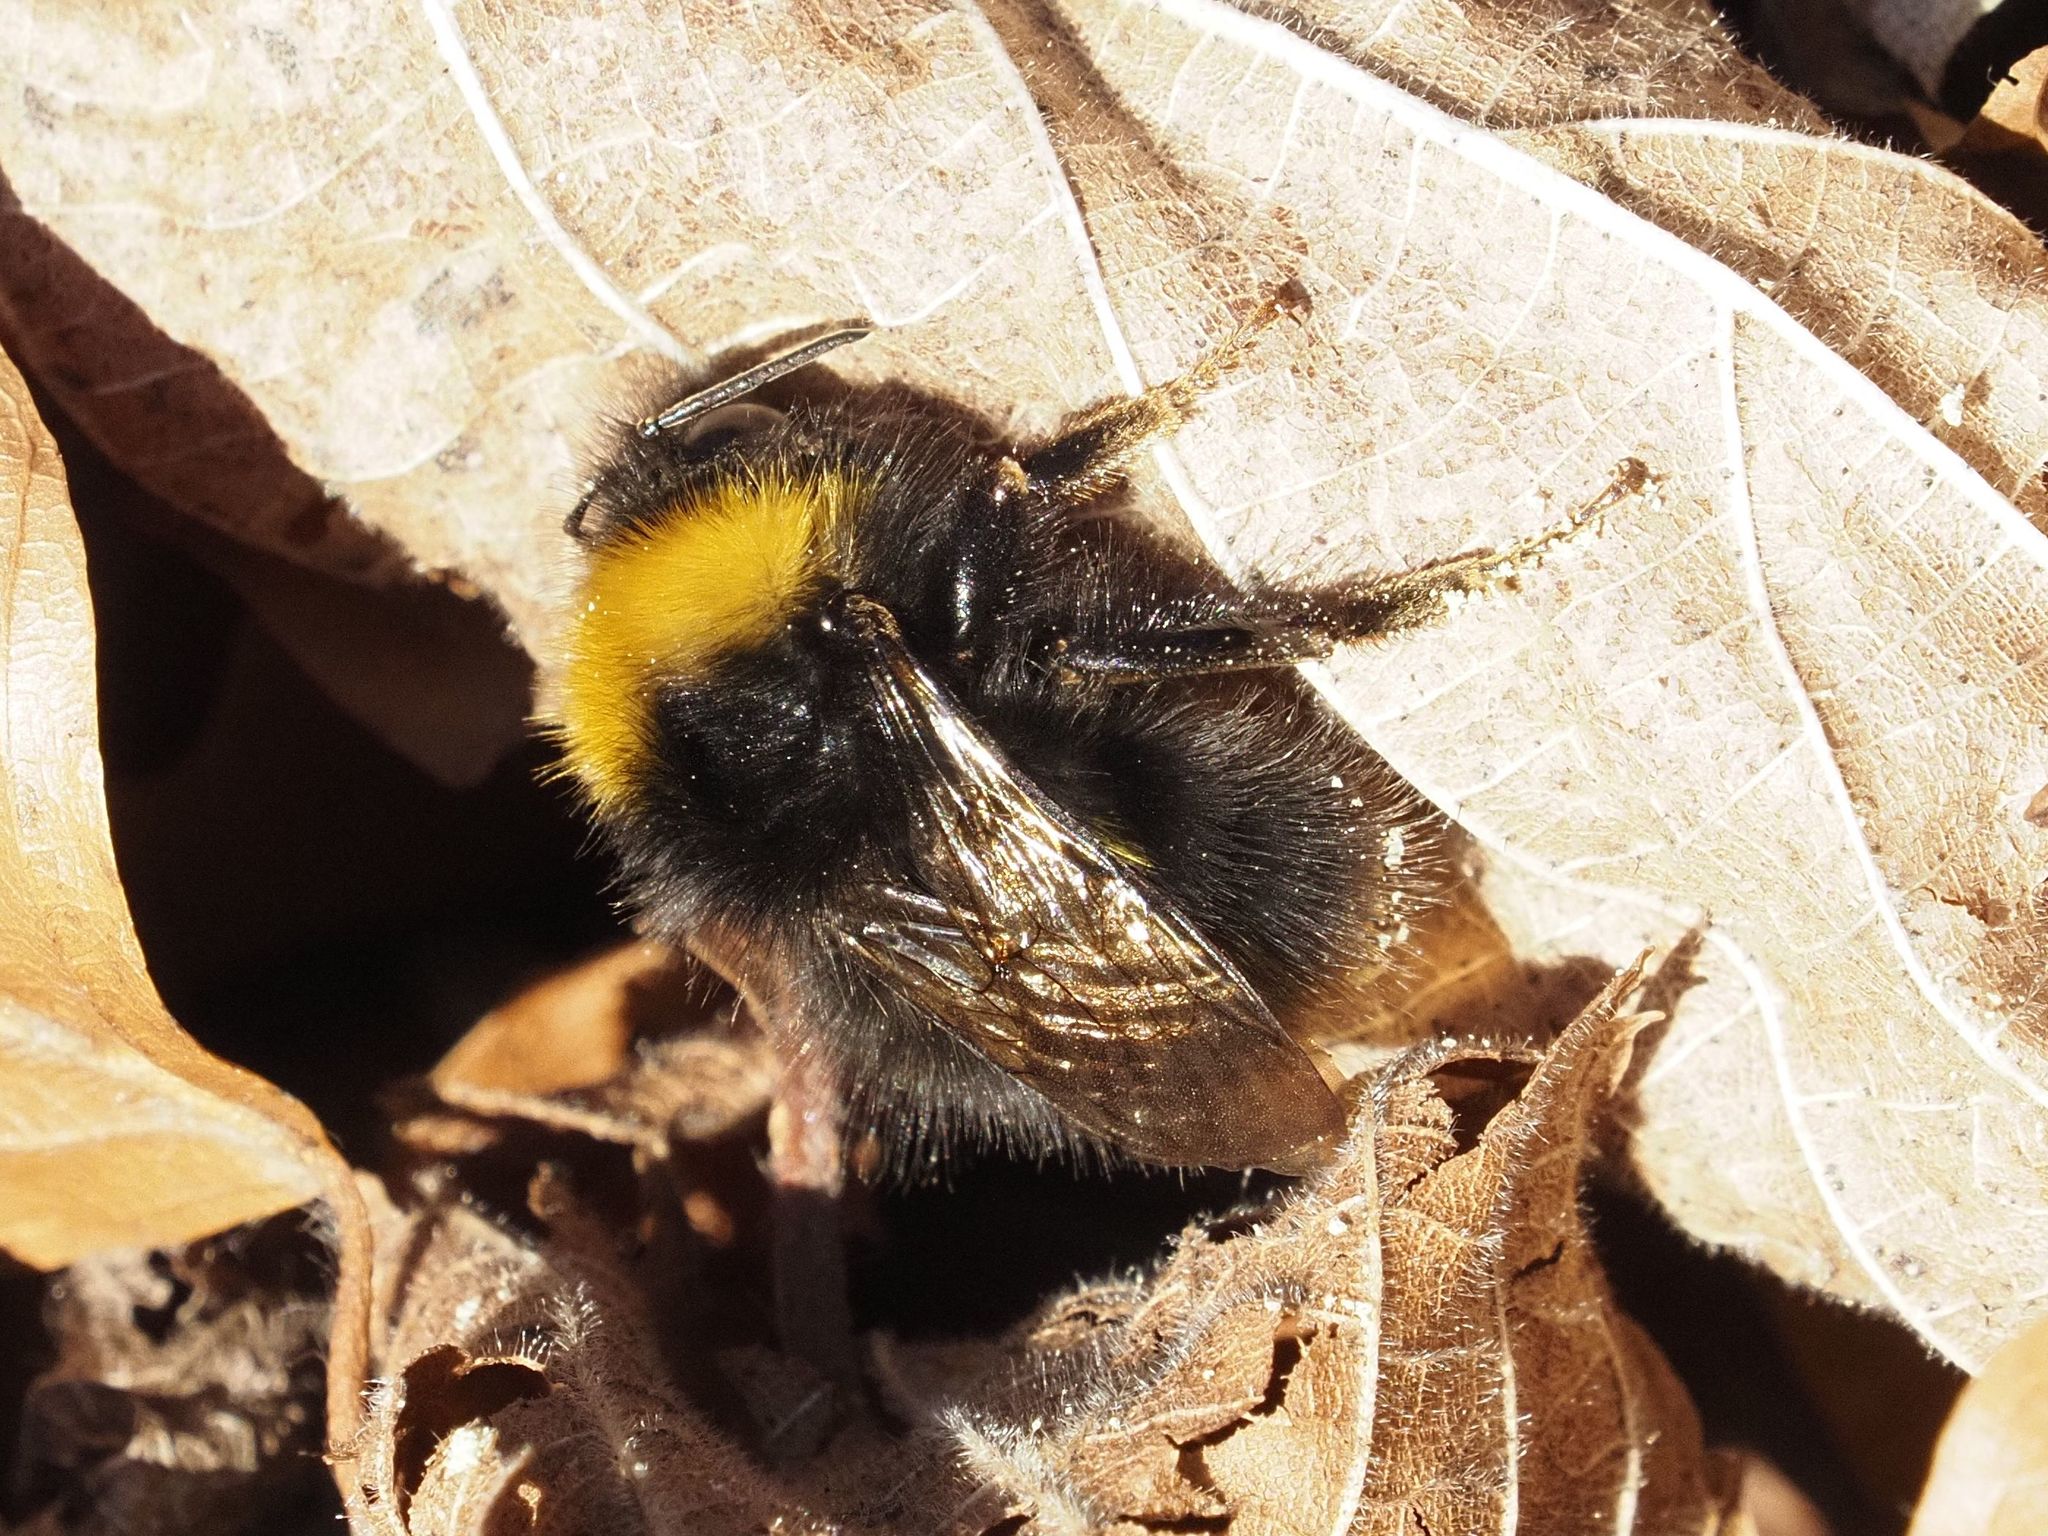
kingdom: Animalia
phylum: Arthropoda
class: Insecta
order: Hymenoptera
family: Apidae
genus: Bombus
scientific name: Bombus pratorum
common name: Early humble-bee
